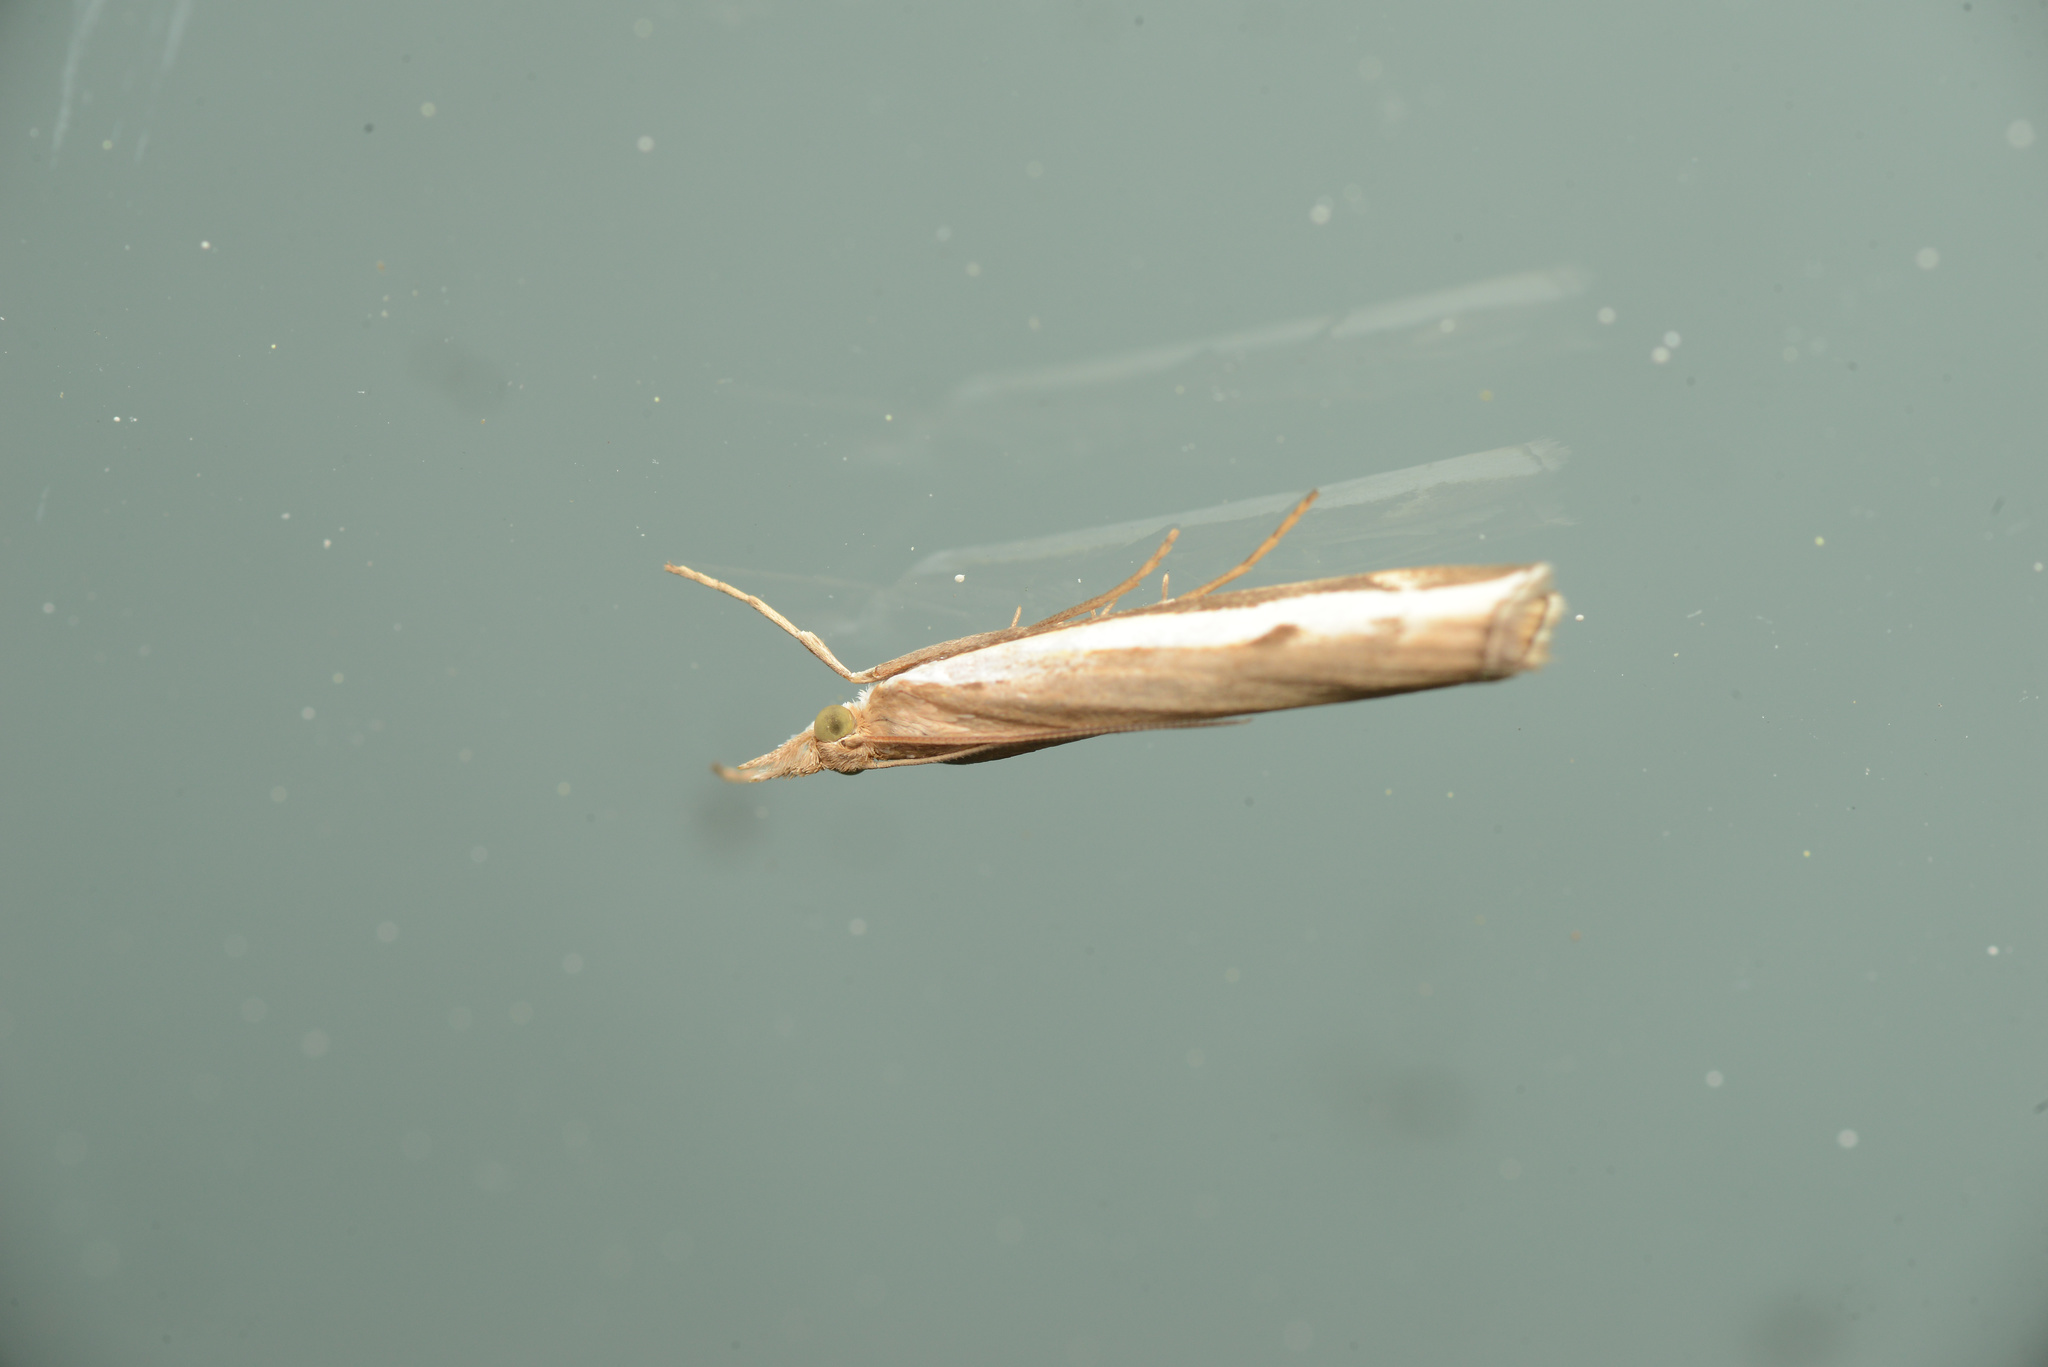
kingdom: Animalia
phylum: Arthropoda
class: Insecta
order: Lepidoptera
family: Crambidae
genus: Orocrambus
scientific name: Orocrambus flexuosellus
